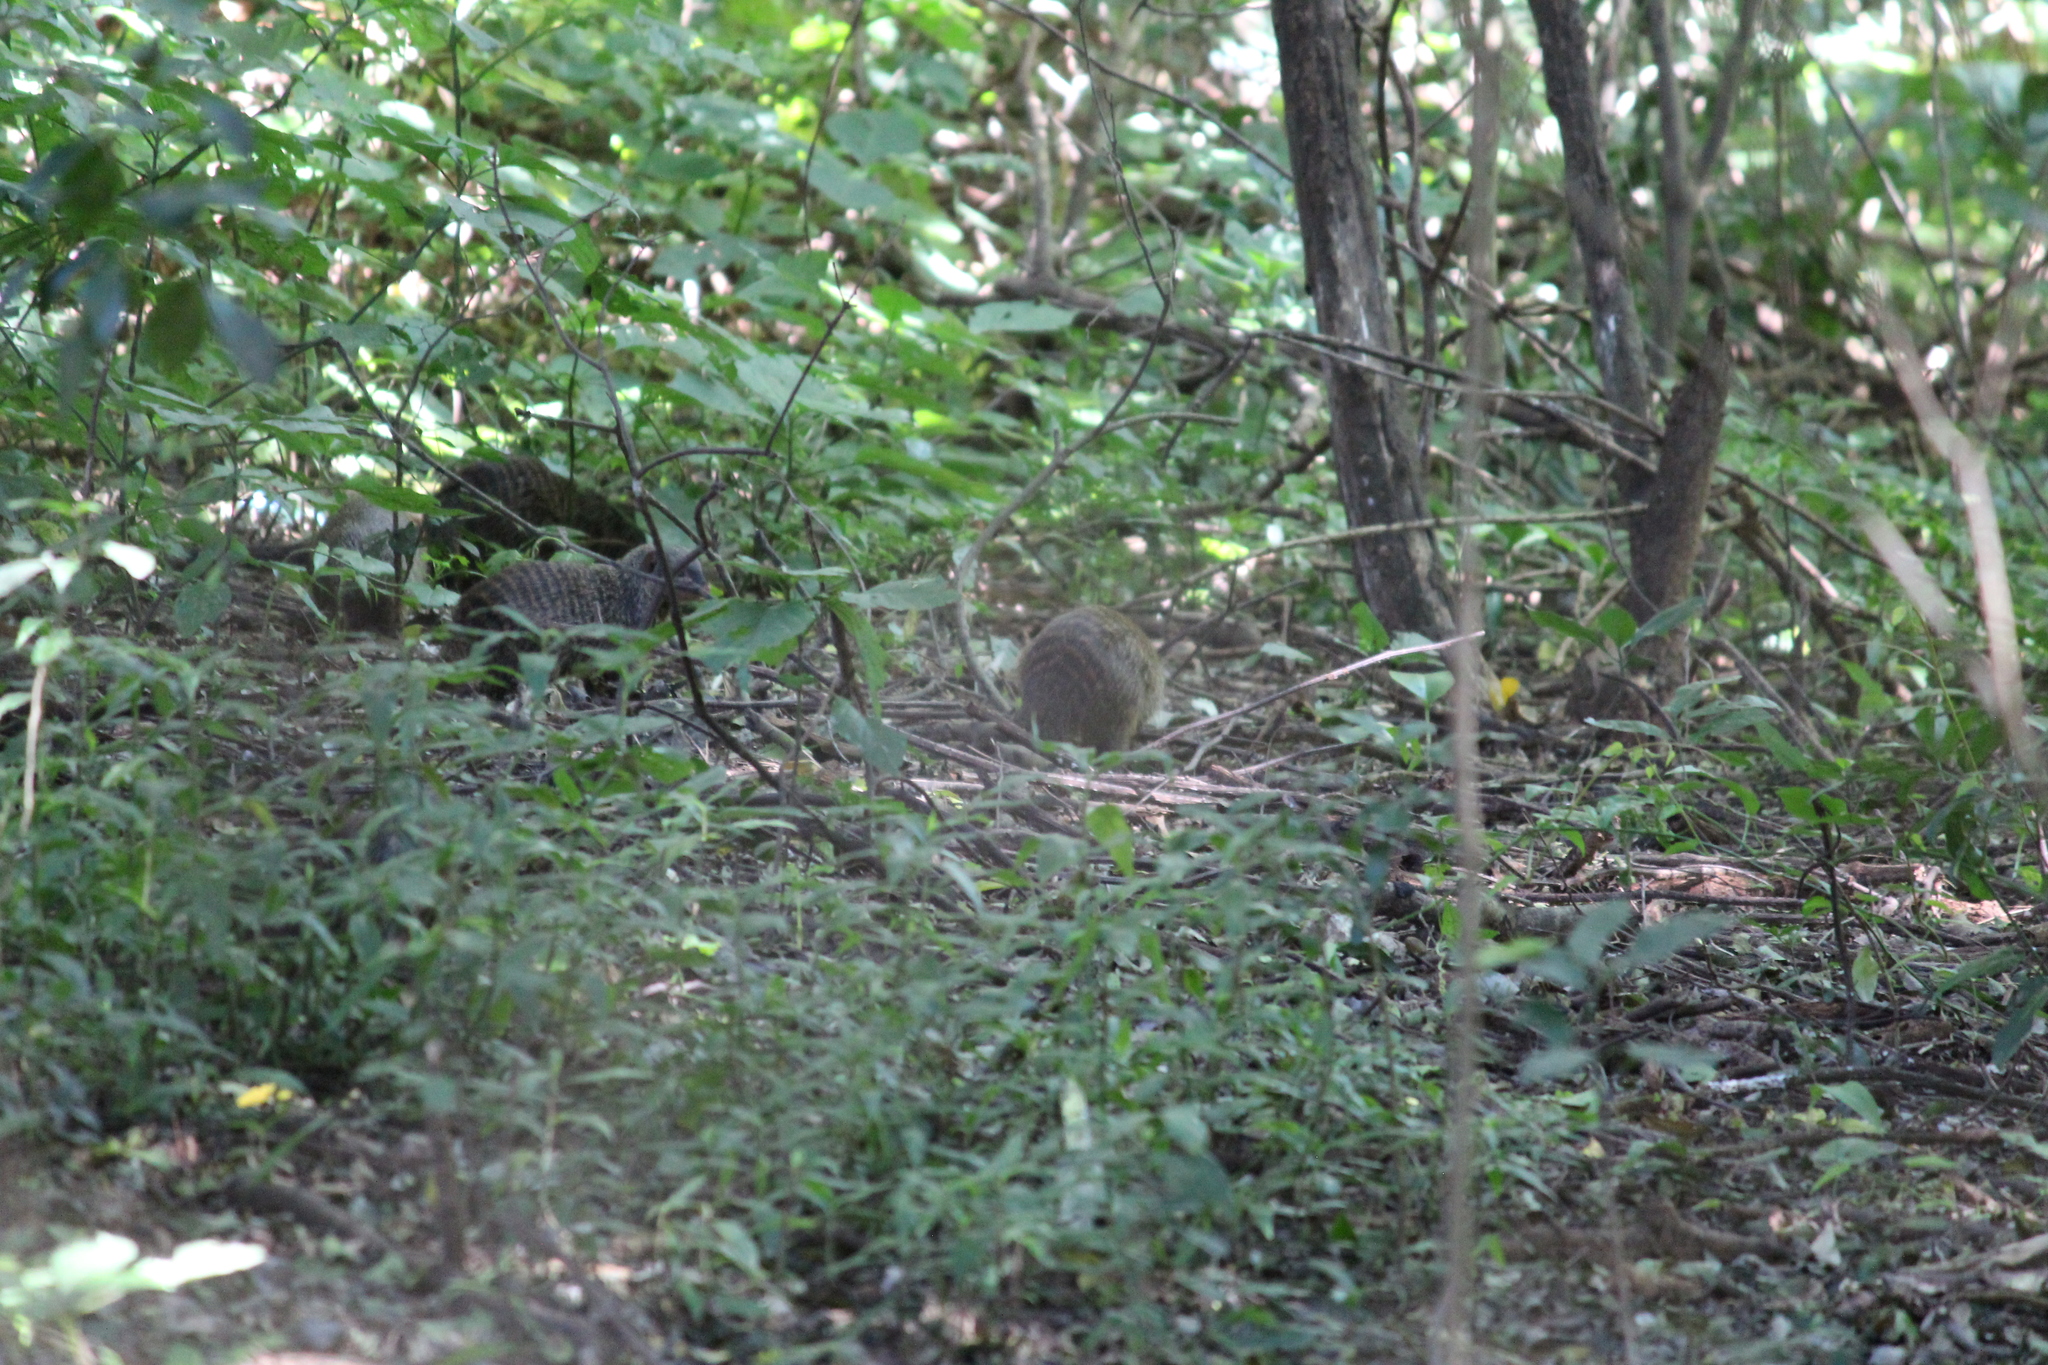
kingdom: Animalia
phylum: Chordata
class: Mammalia
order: Carnivora
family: Herpestidae
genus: Mungos
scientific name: Mungos mungo
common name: Banded mongoose
